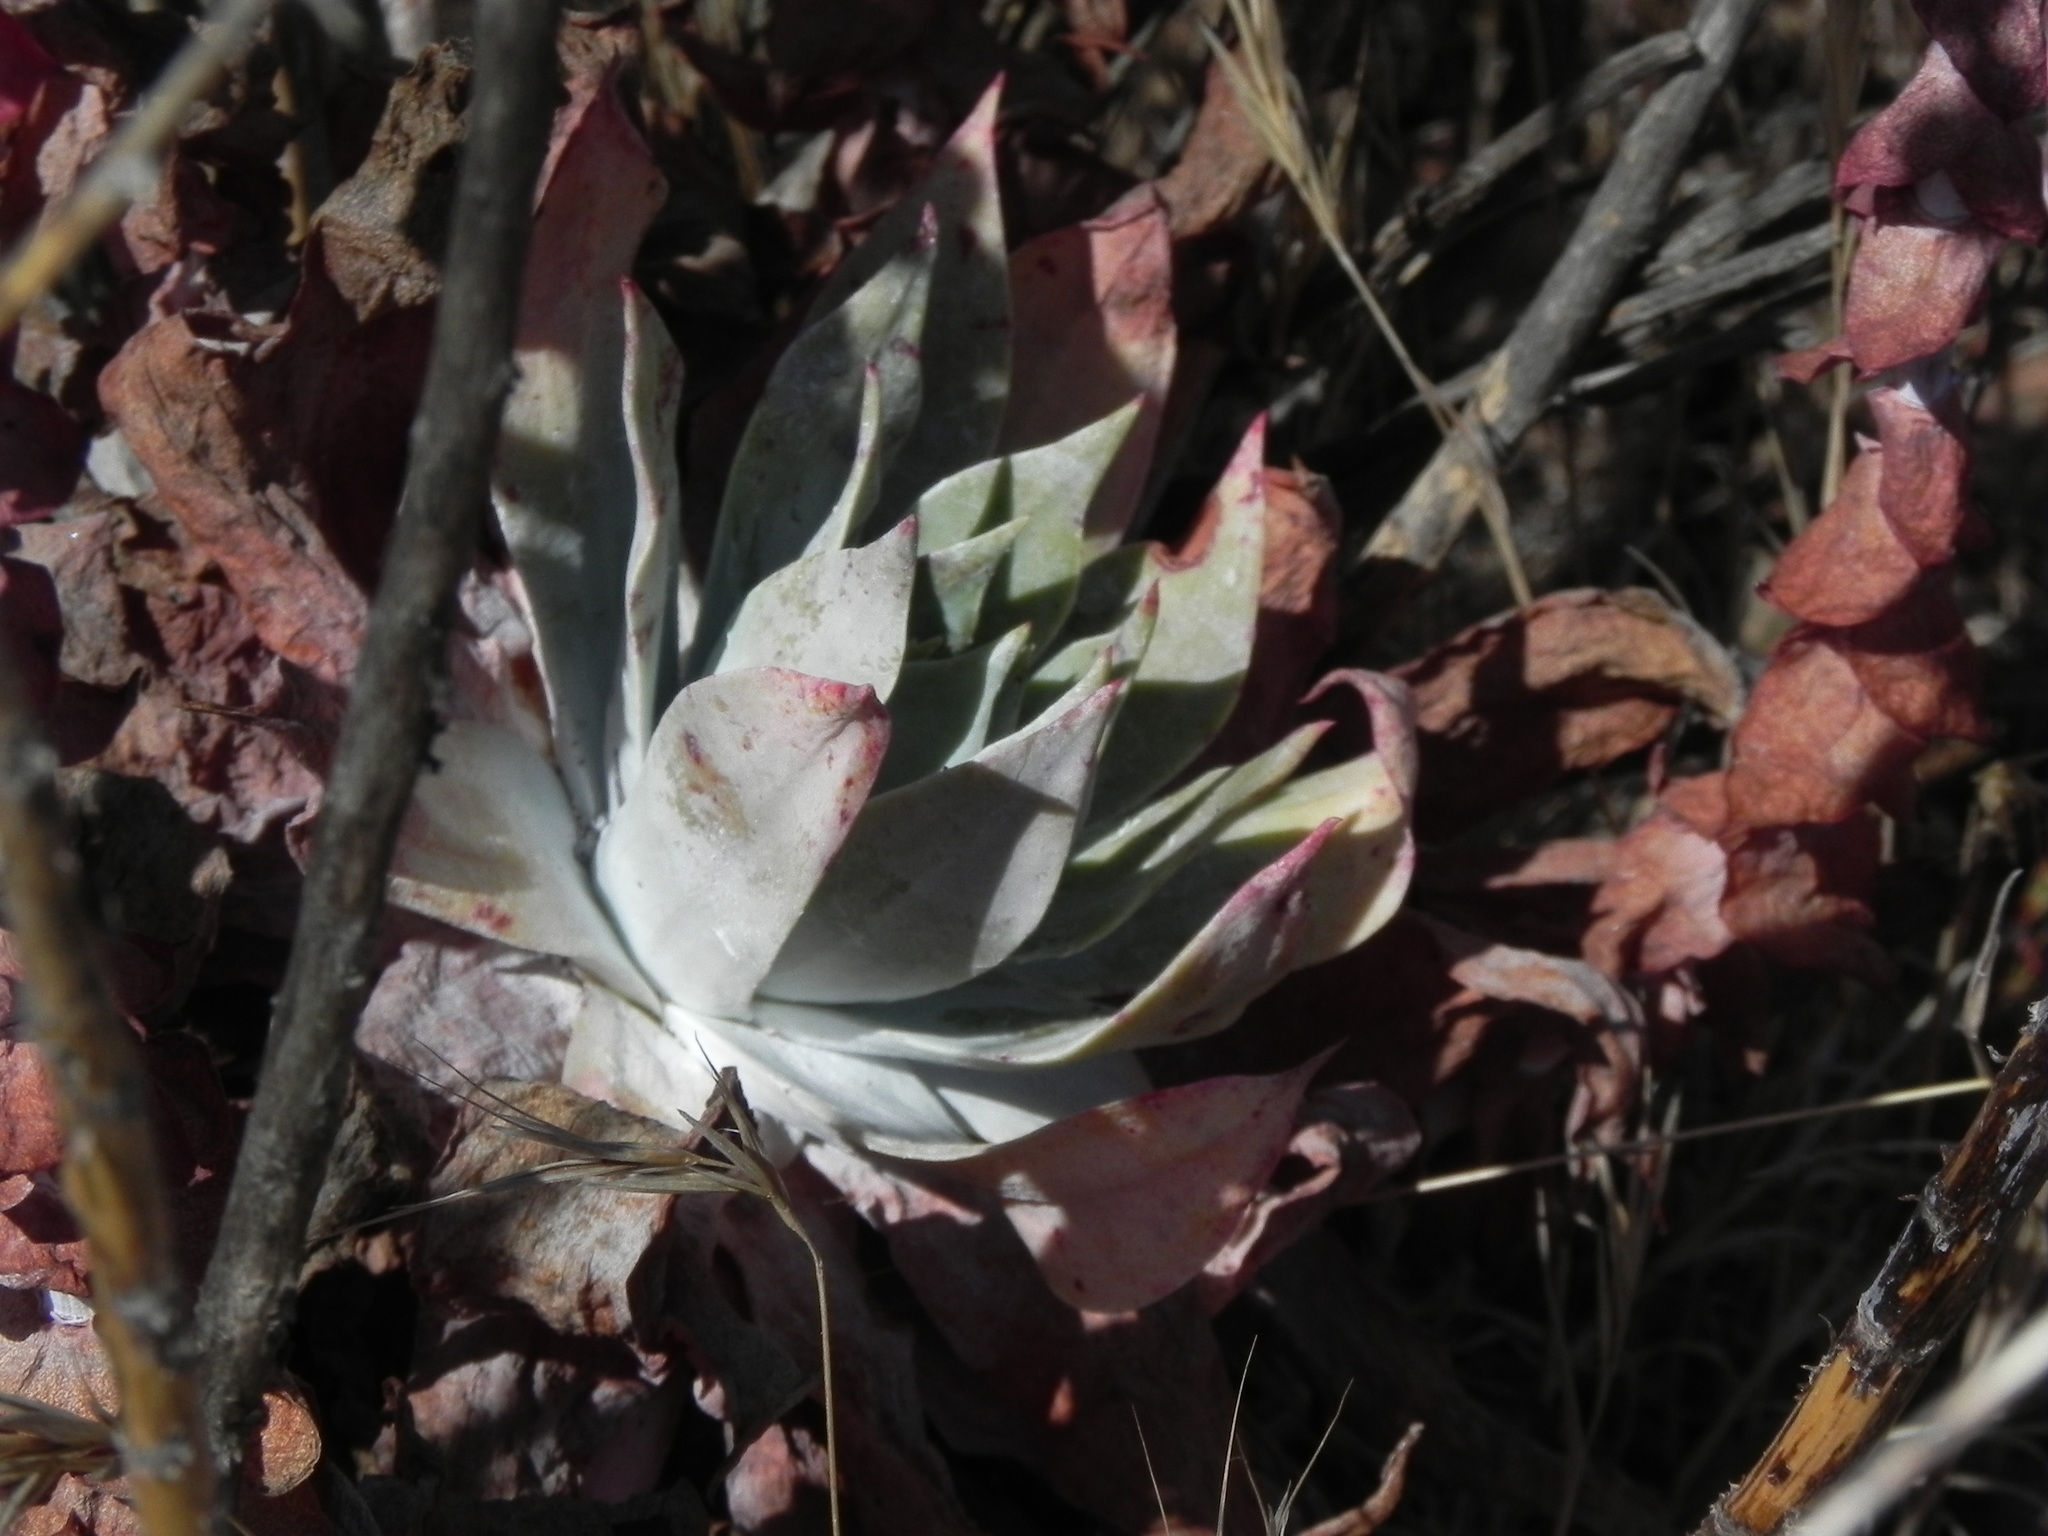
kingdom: Plantae
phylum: Tracheophyta
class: Magnoliopsida
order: Saxifragales
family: Crassulaceae
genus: Dudleya
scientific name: Dudleya pulverulenta
